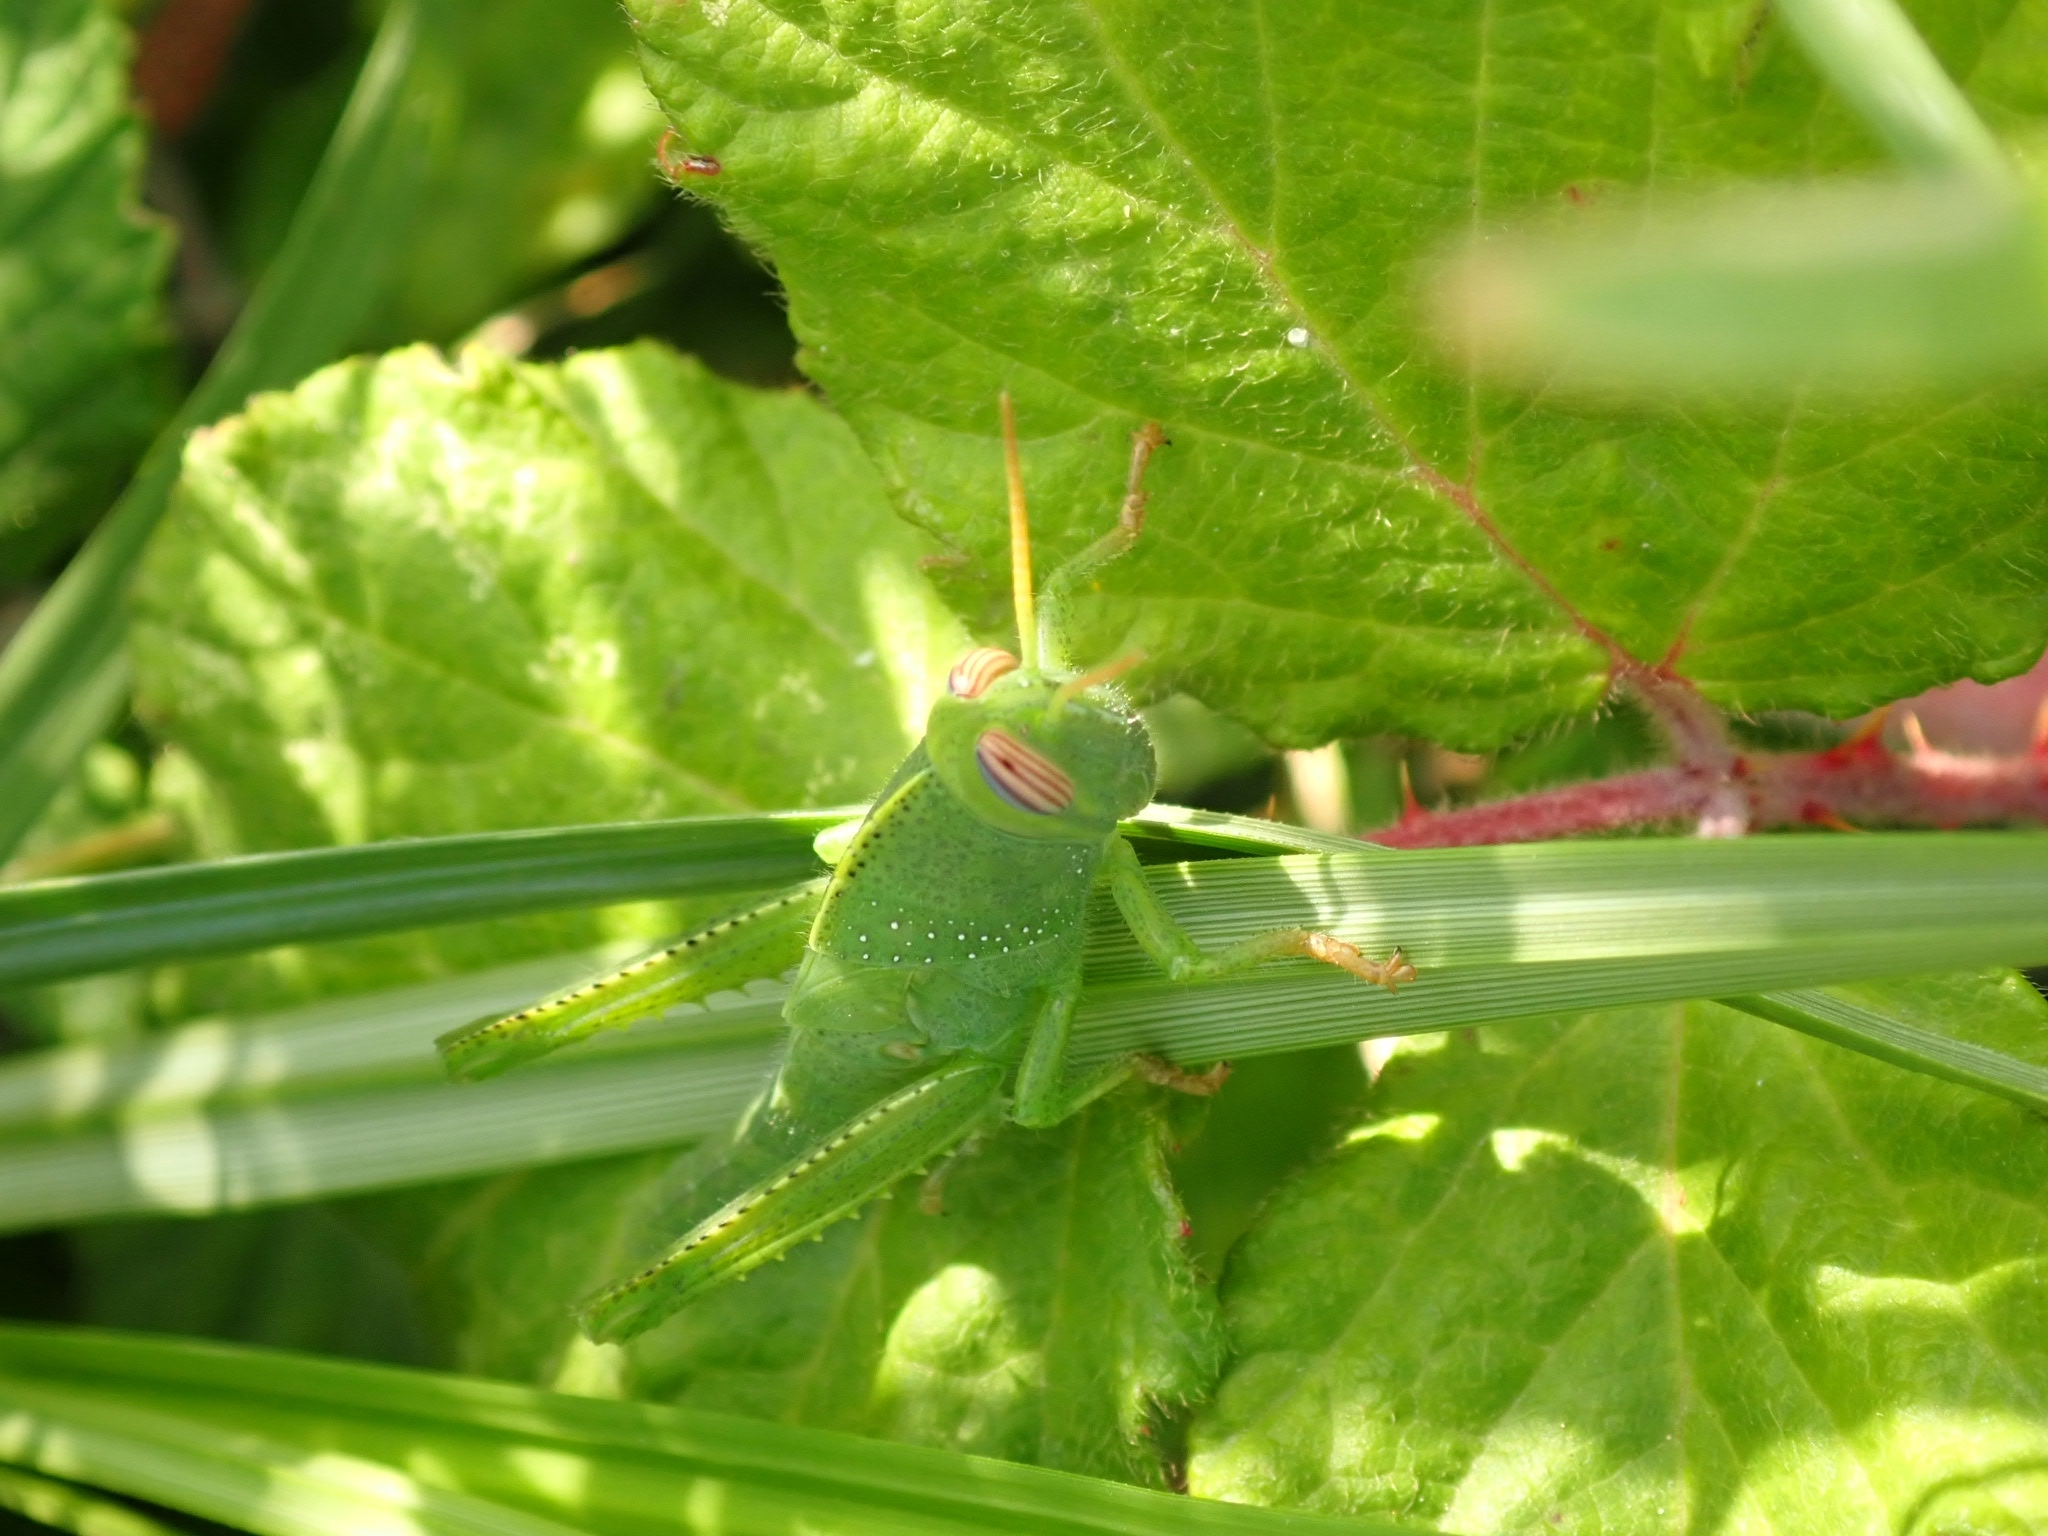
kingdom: Animalia
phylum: Arthropoda
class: Insecta
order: Orthoptera
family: Acrididae
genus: Anacridium
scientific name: Anacridium aegyptium
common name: Egyptian grasshopper
